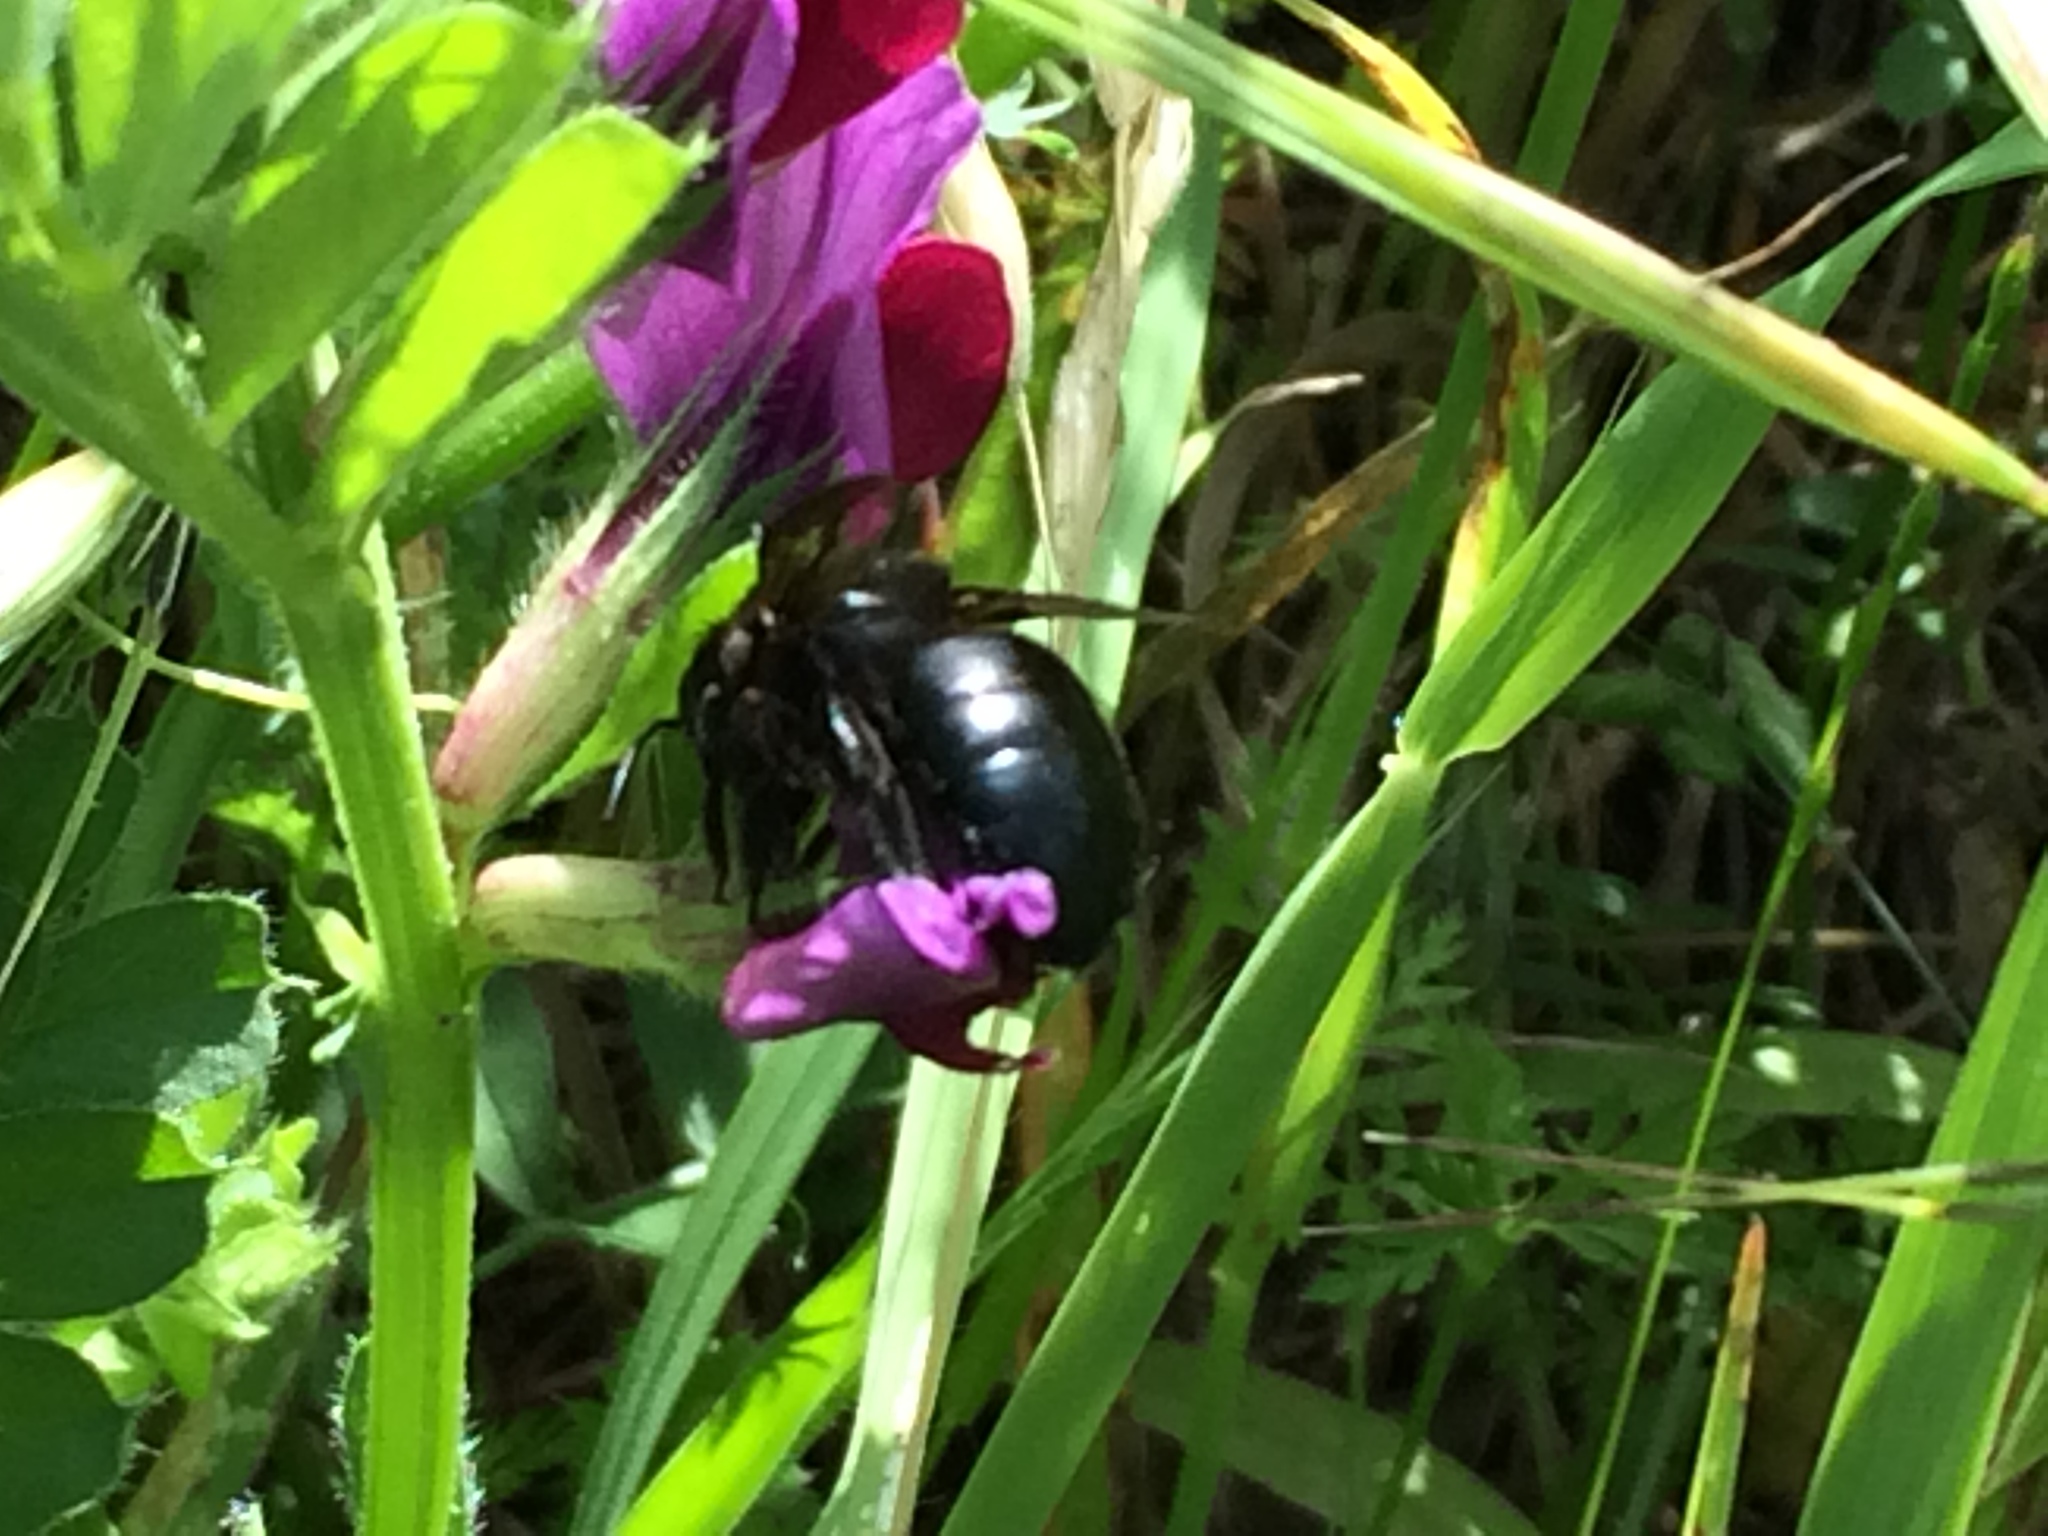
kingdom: Animalia
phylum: Arthropoda
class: Insecta
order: Hymenoptera
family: Apidae
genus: Xylocopa
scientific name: Xylocopa tabaniformis
